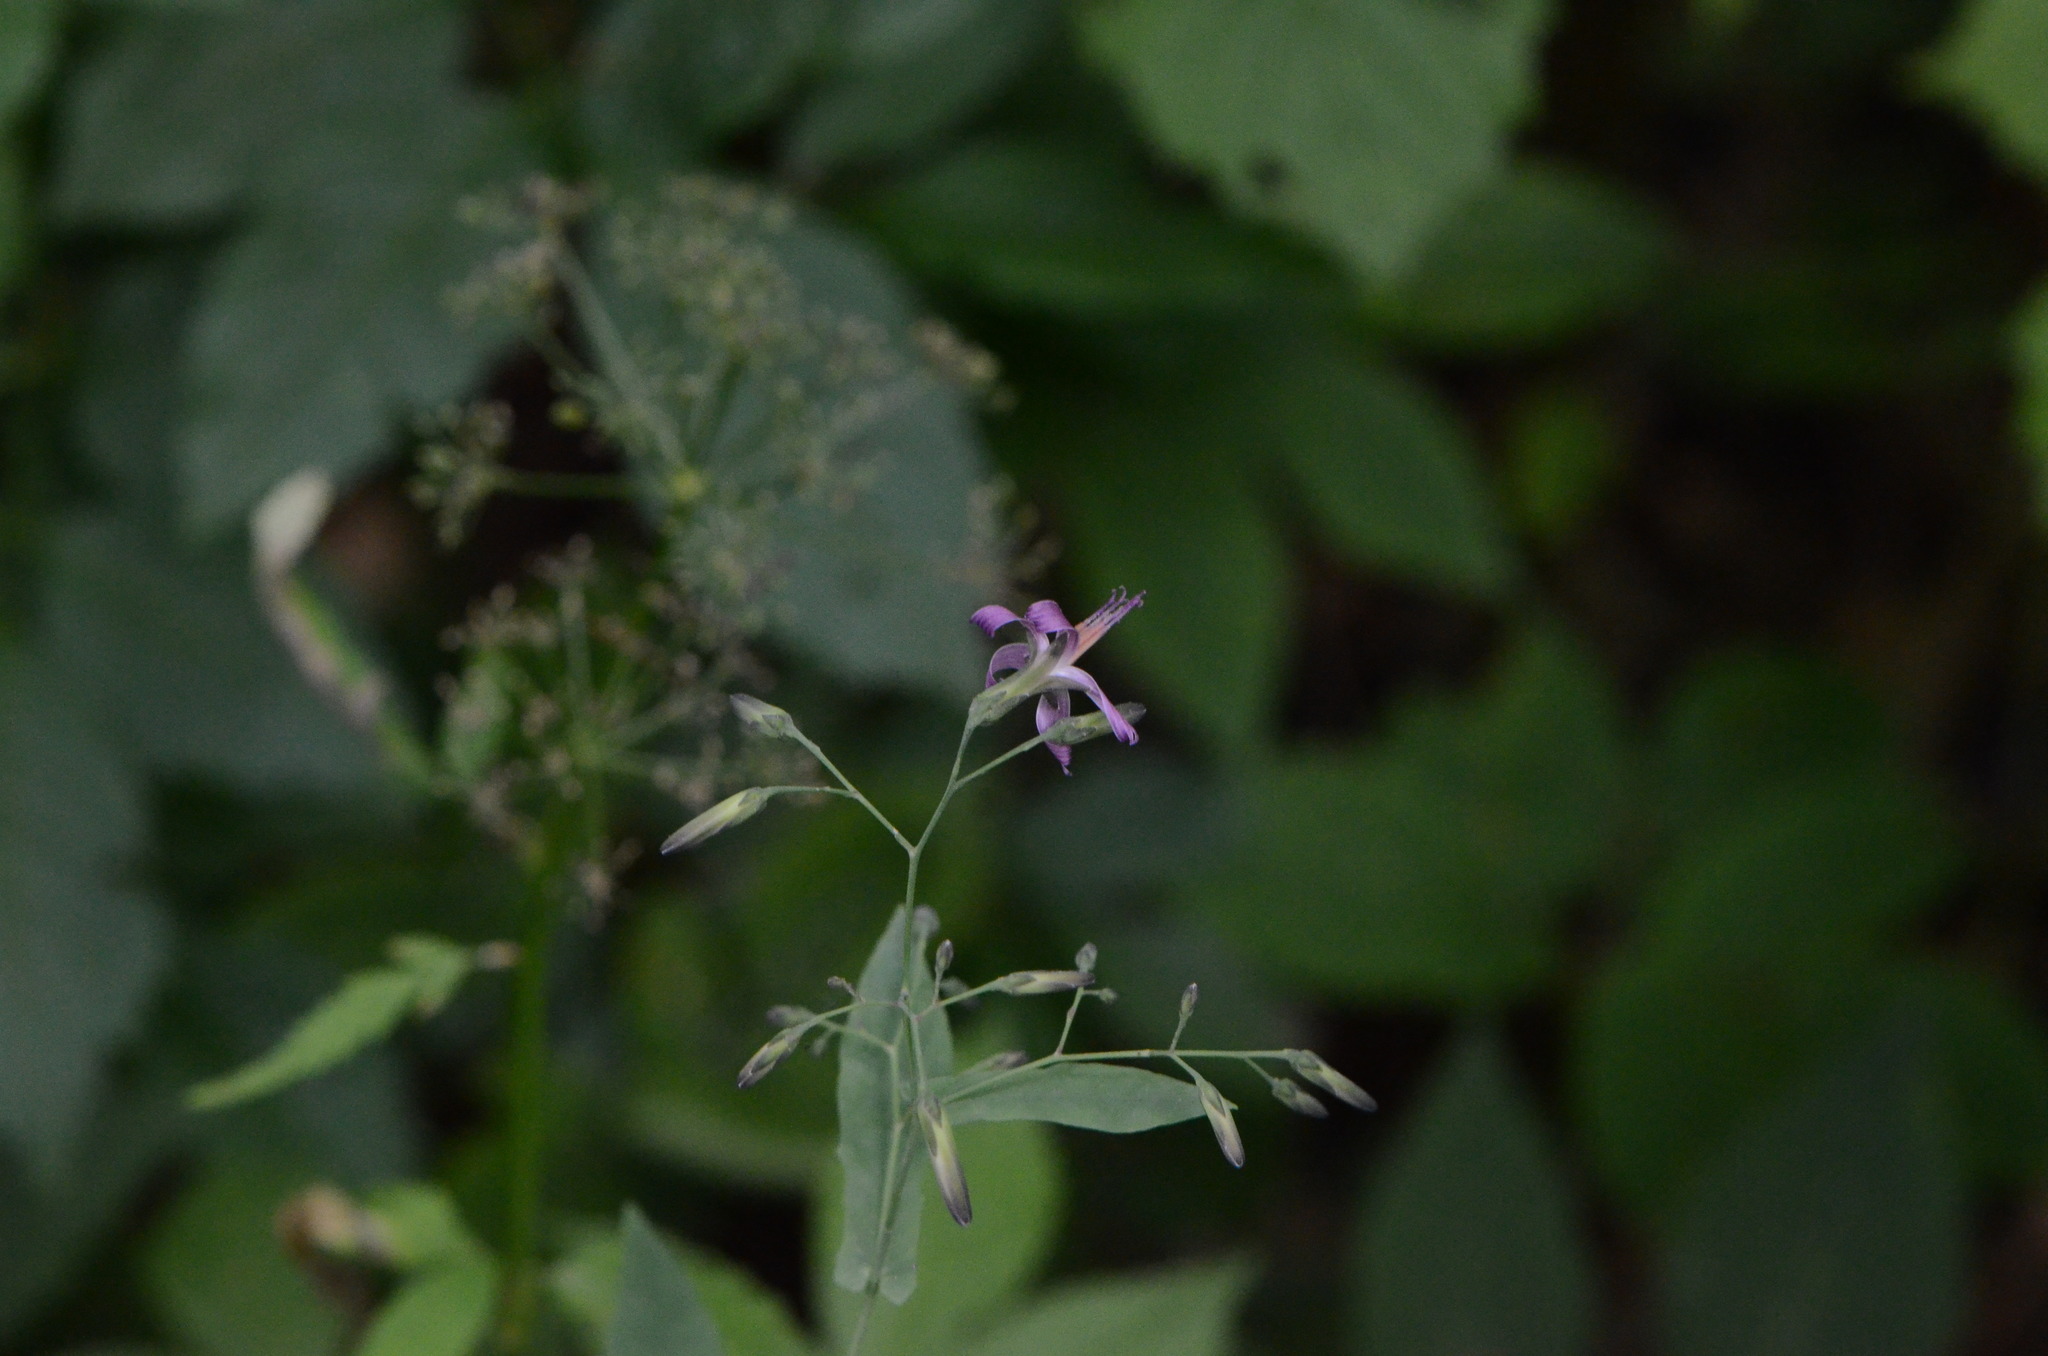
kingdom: Plantae
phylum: Tracheophyta
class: Magnoliopsida
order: Asterales
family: Asteraceae
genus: Prenanthes
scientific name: Prenanthes purpurea
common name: Purple lettuce
